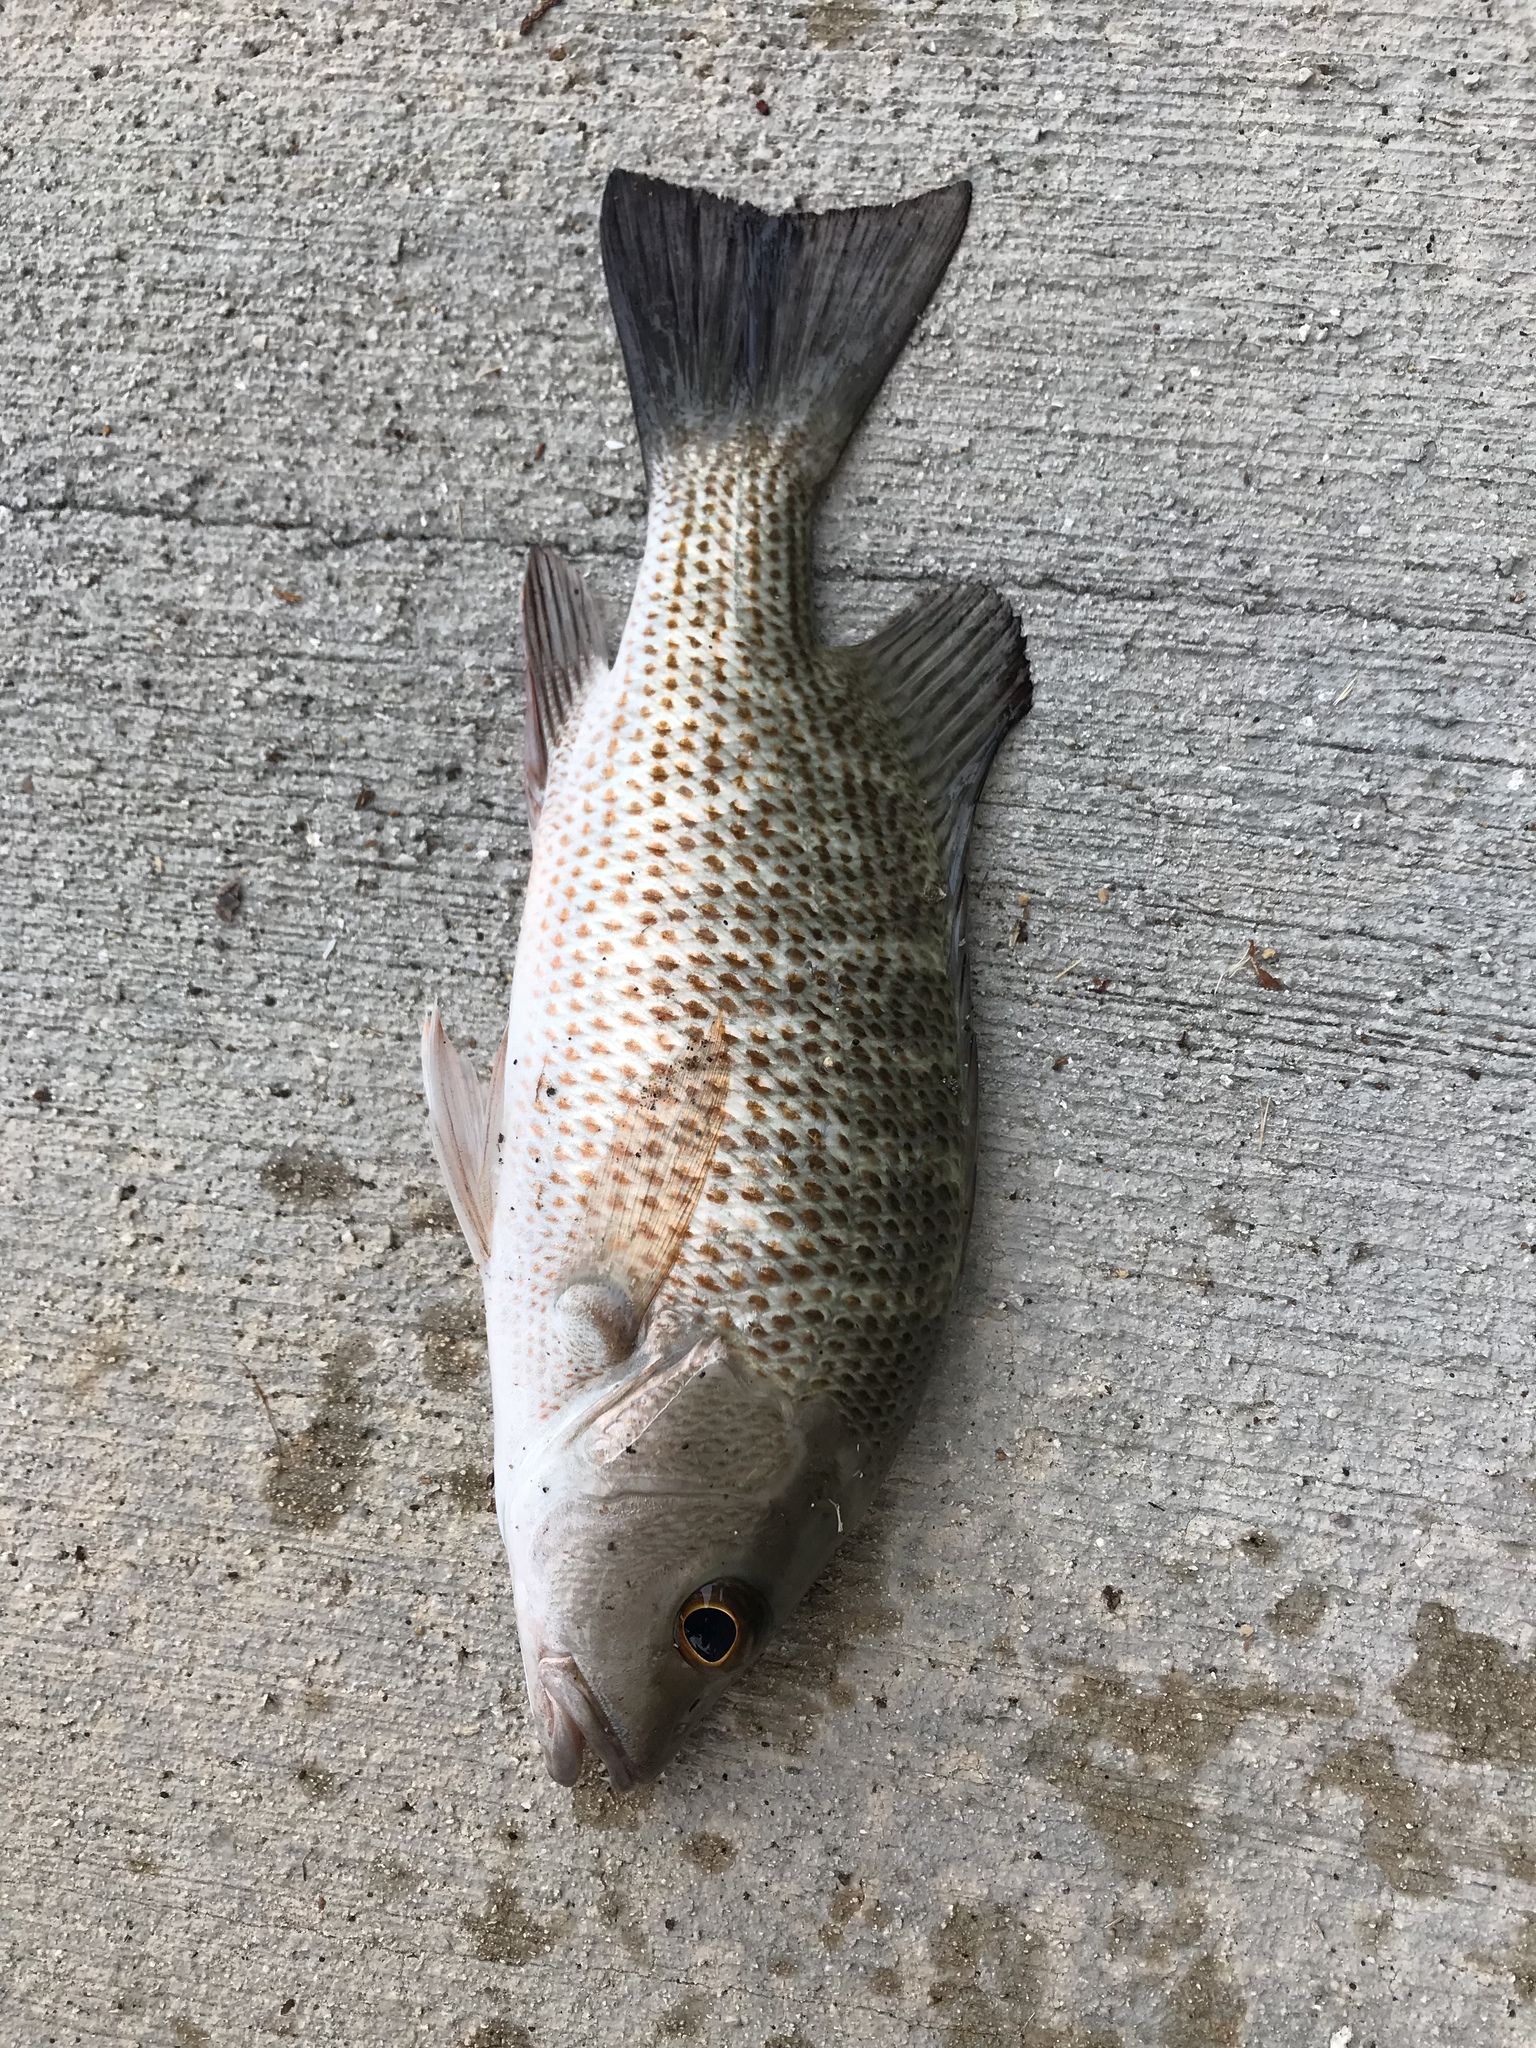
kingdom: Animalia
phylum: Chordata
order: Perciformes
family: Lutjanidae
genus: Lutjanus
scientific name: Lutjanus griseus
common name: Gray snapper
